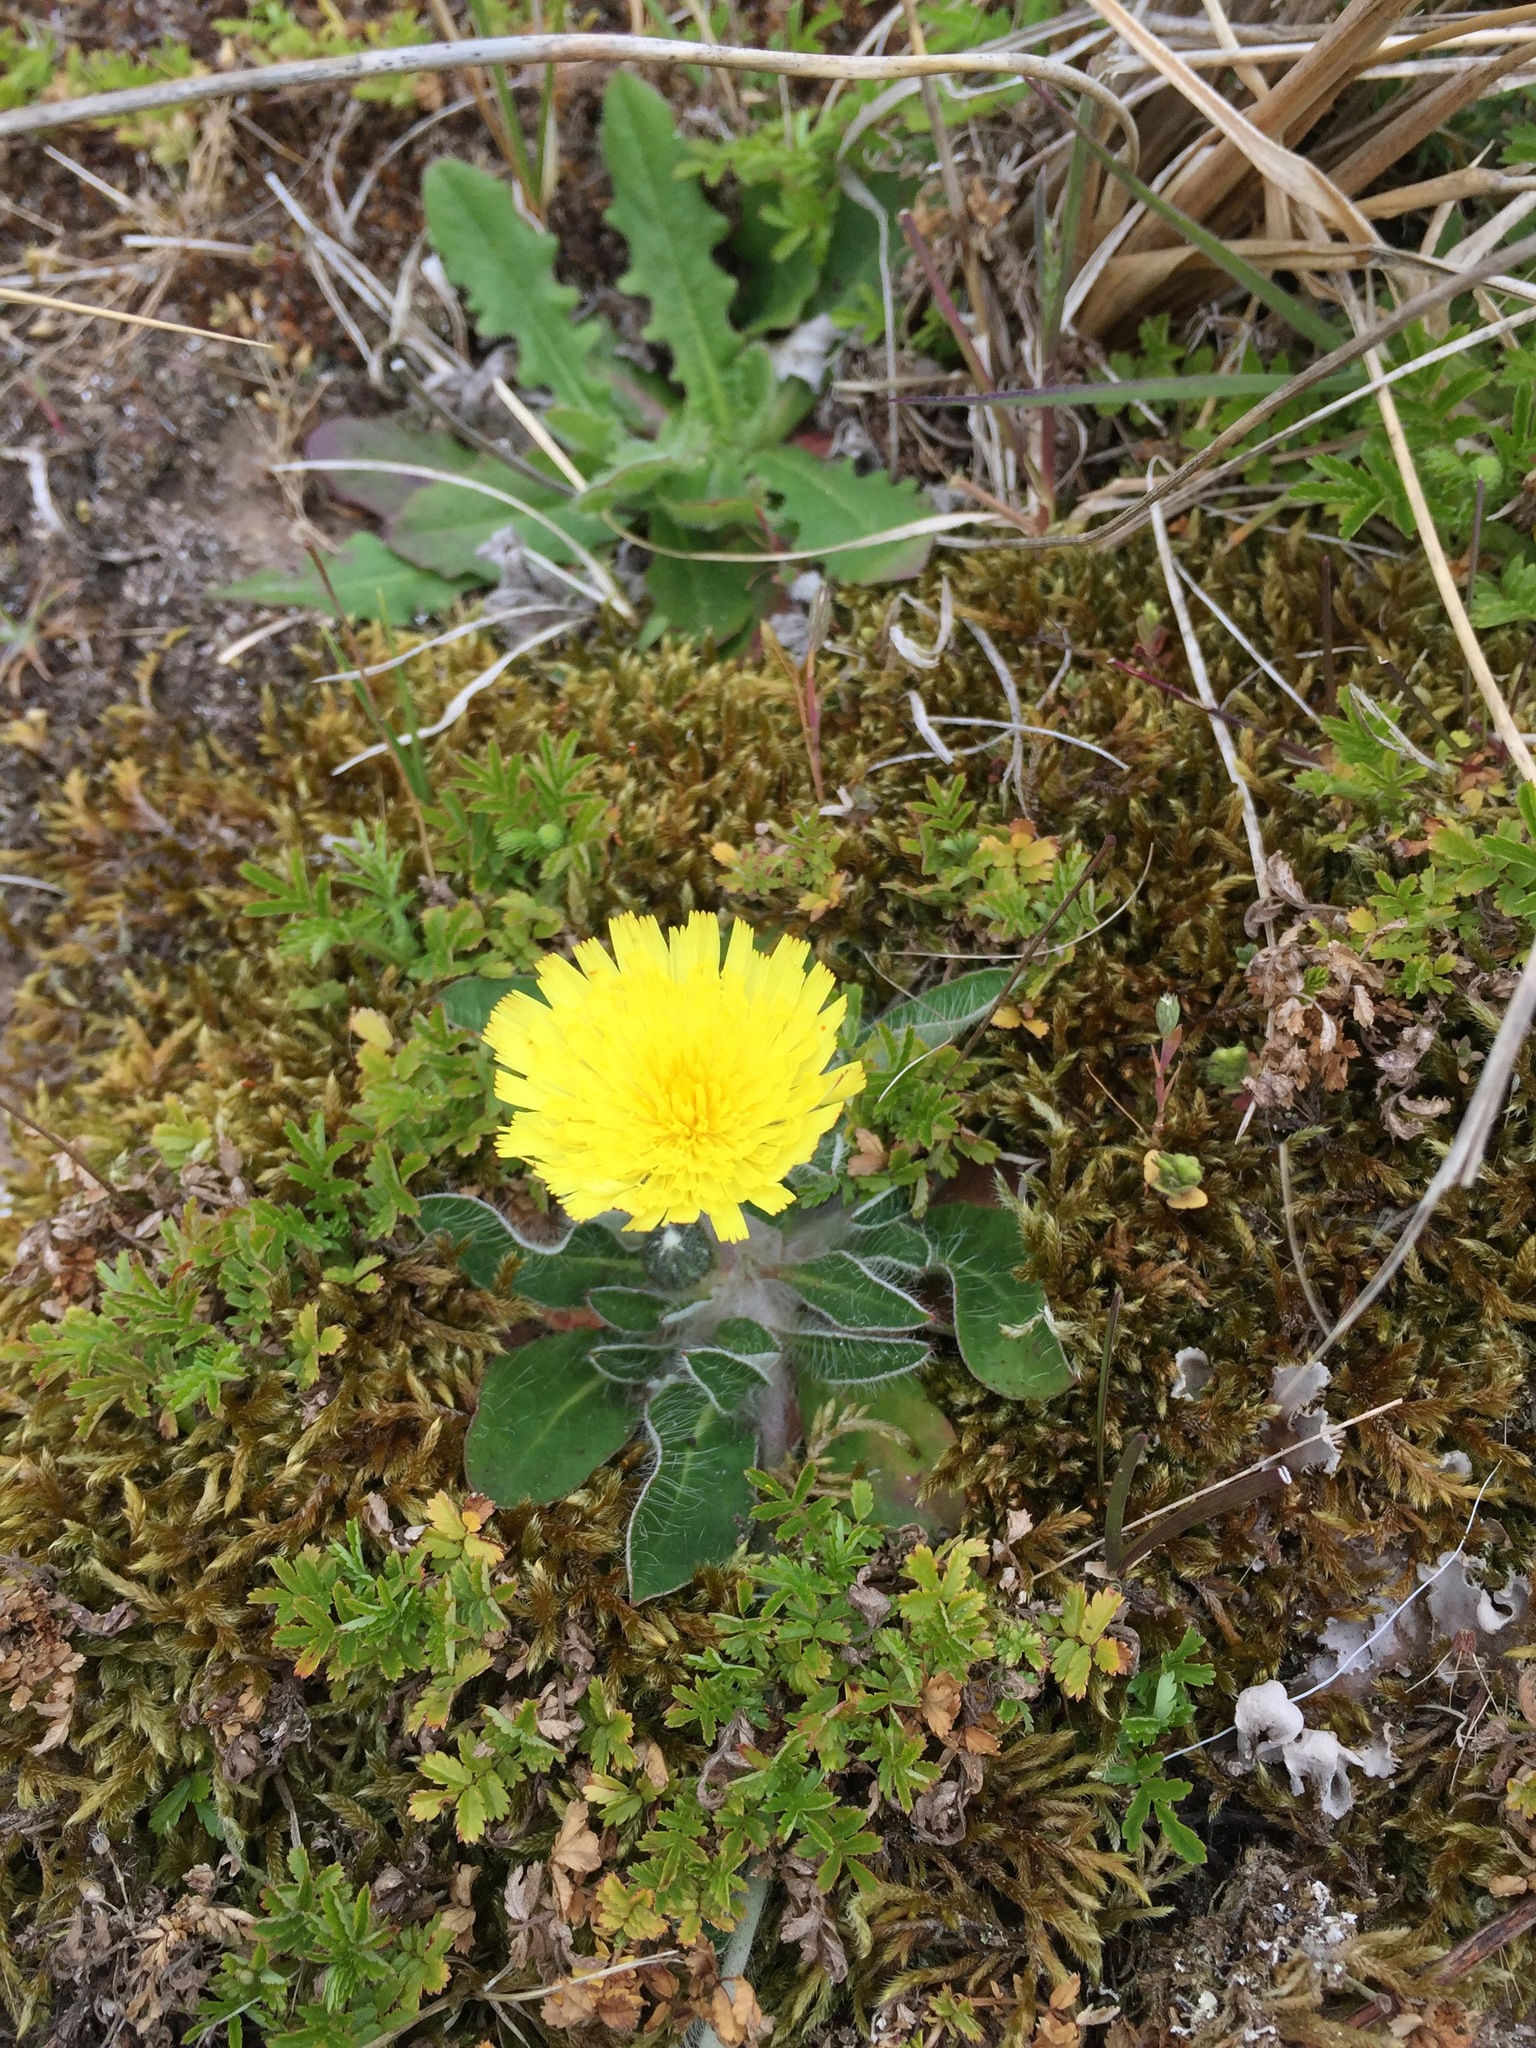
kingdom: Plantae
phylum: Tracheophyta
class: Magnoliopsida
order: Asterales
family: Asteraceae
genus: Pilosella
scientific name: Pilosella officinarum
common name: Mouse-ear hawkweed
